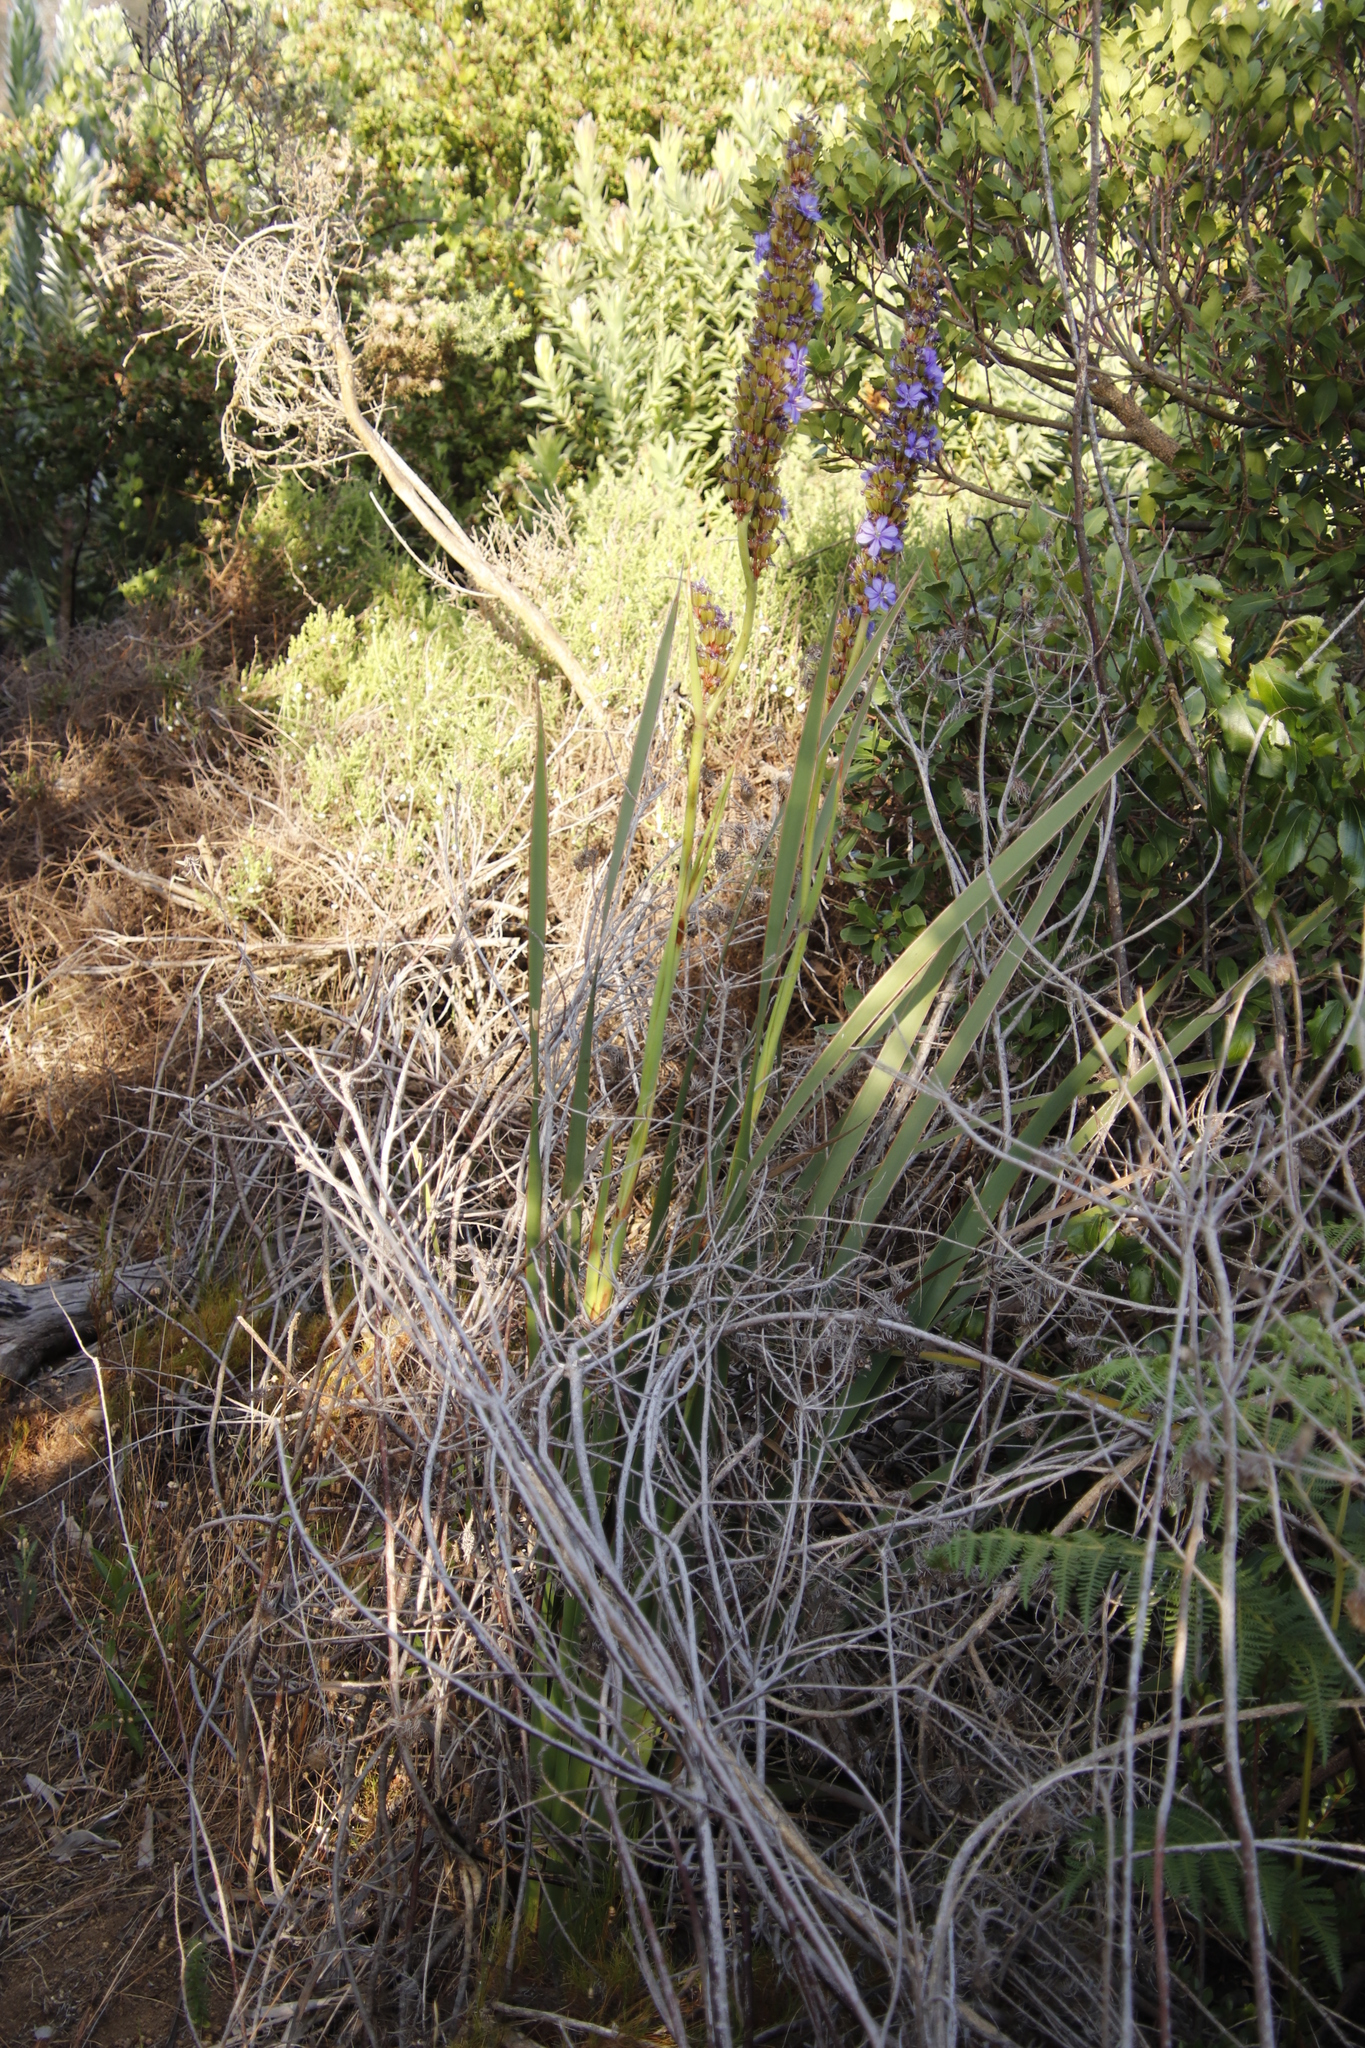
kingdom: Plantae
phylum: Tracheophyta
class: Liliopsida
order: Asparagales
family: Iridaceae
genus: Aristea
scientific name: Aristea capitata
